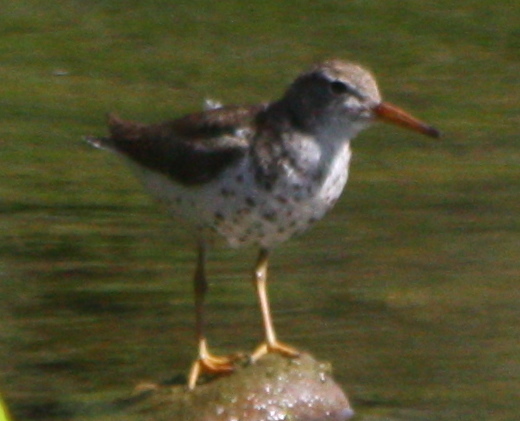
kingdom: Animalia
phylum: Chordata
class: Aves
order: Charadriiformes
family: Scolopacidae
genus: Actitis
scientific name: Actitis macularius
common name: Spotted sandpiper
